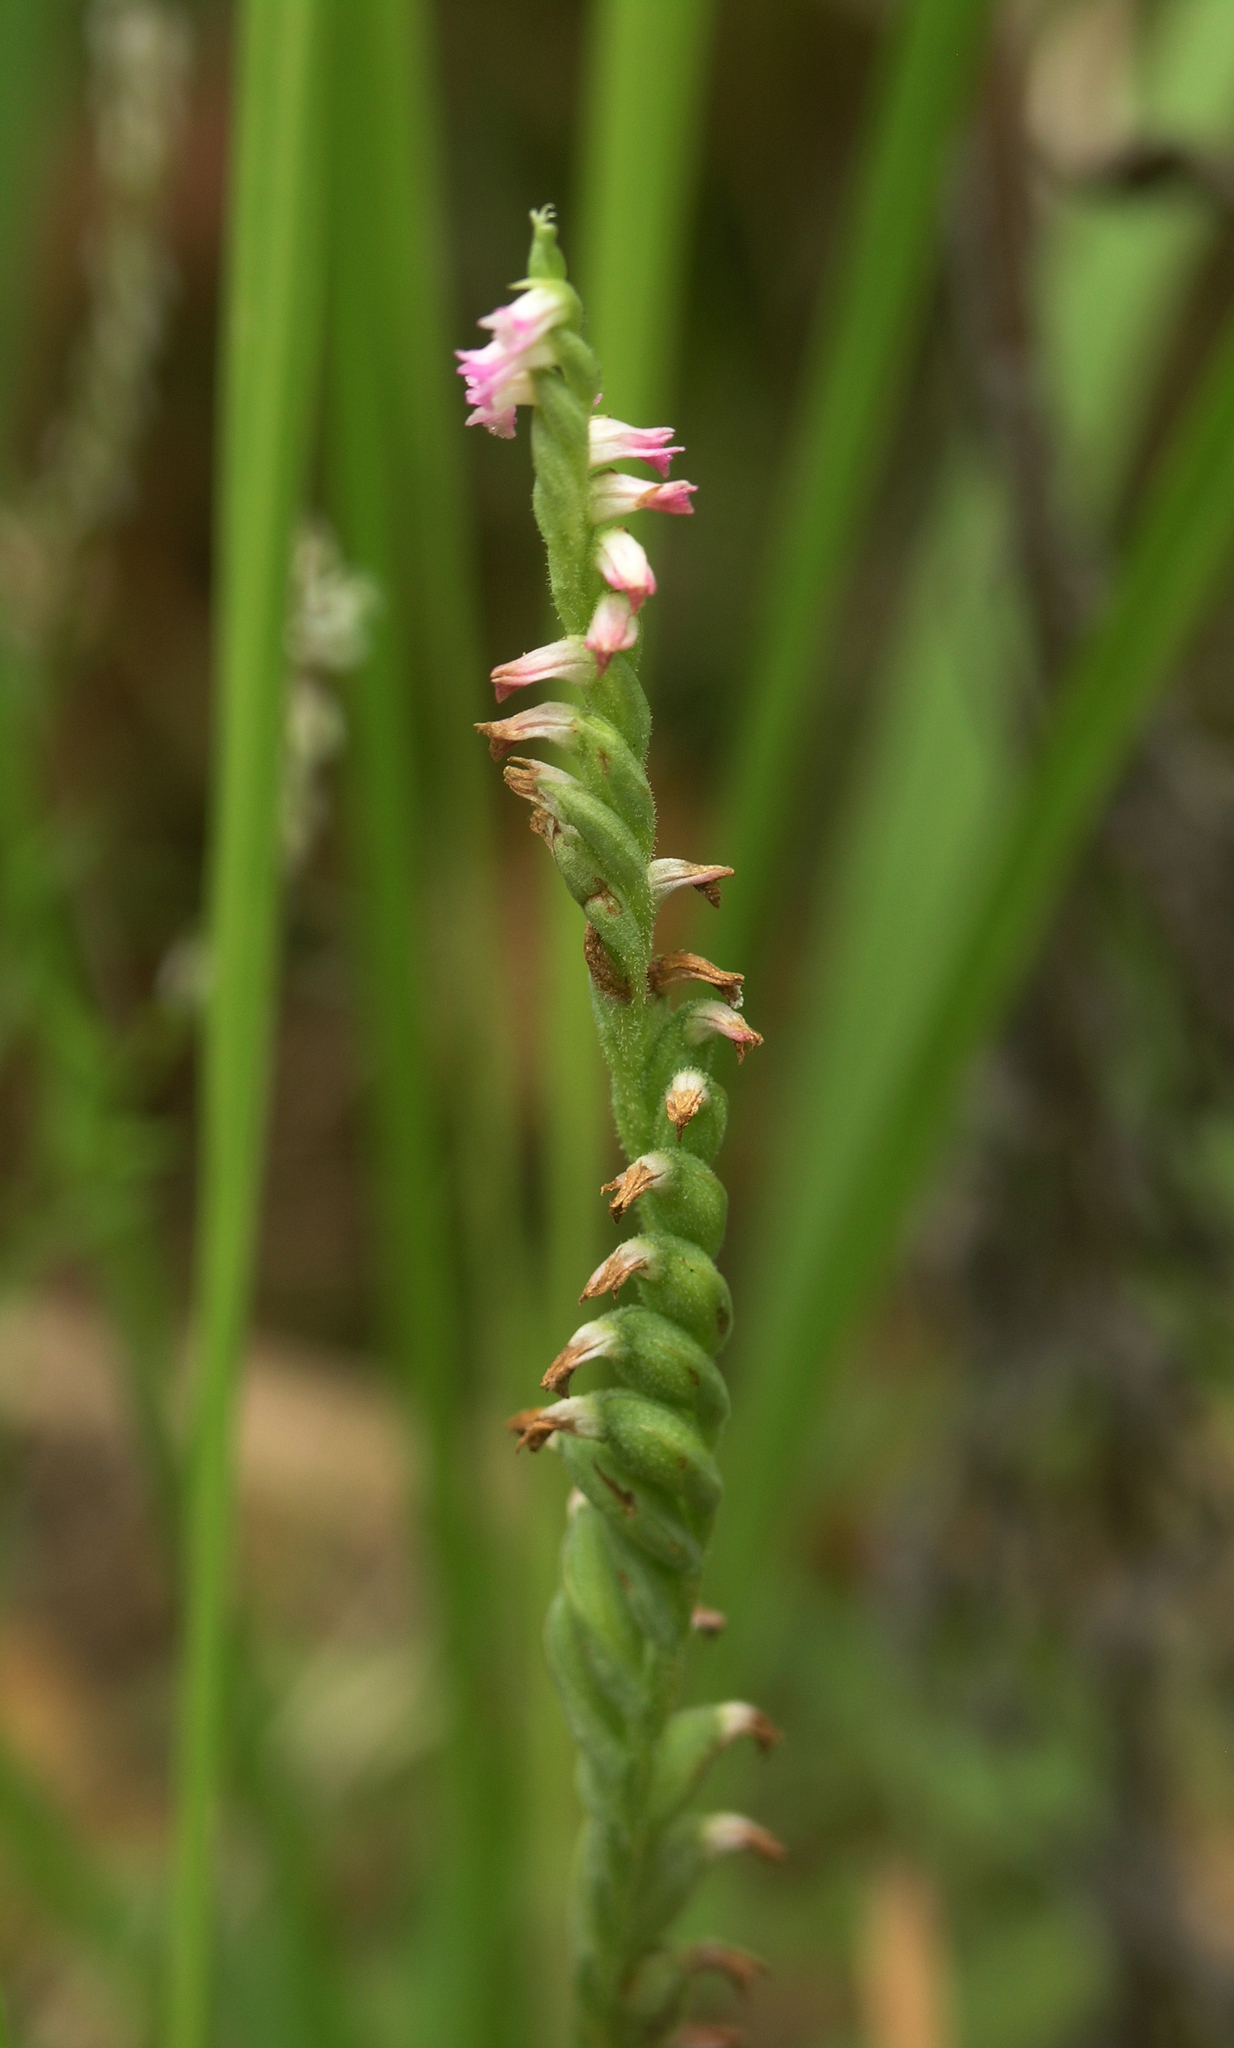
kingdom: Plantae
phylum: Tracheophyta
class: Liliopsida
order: Asparagales
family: Orchidaceae
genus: Spiranthes
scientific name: Spiranthes australis
